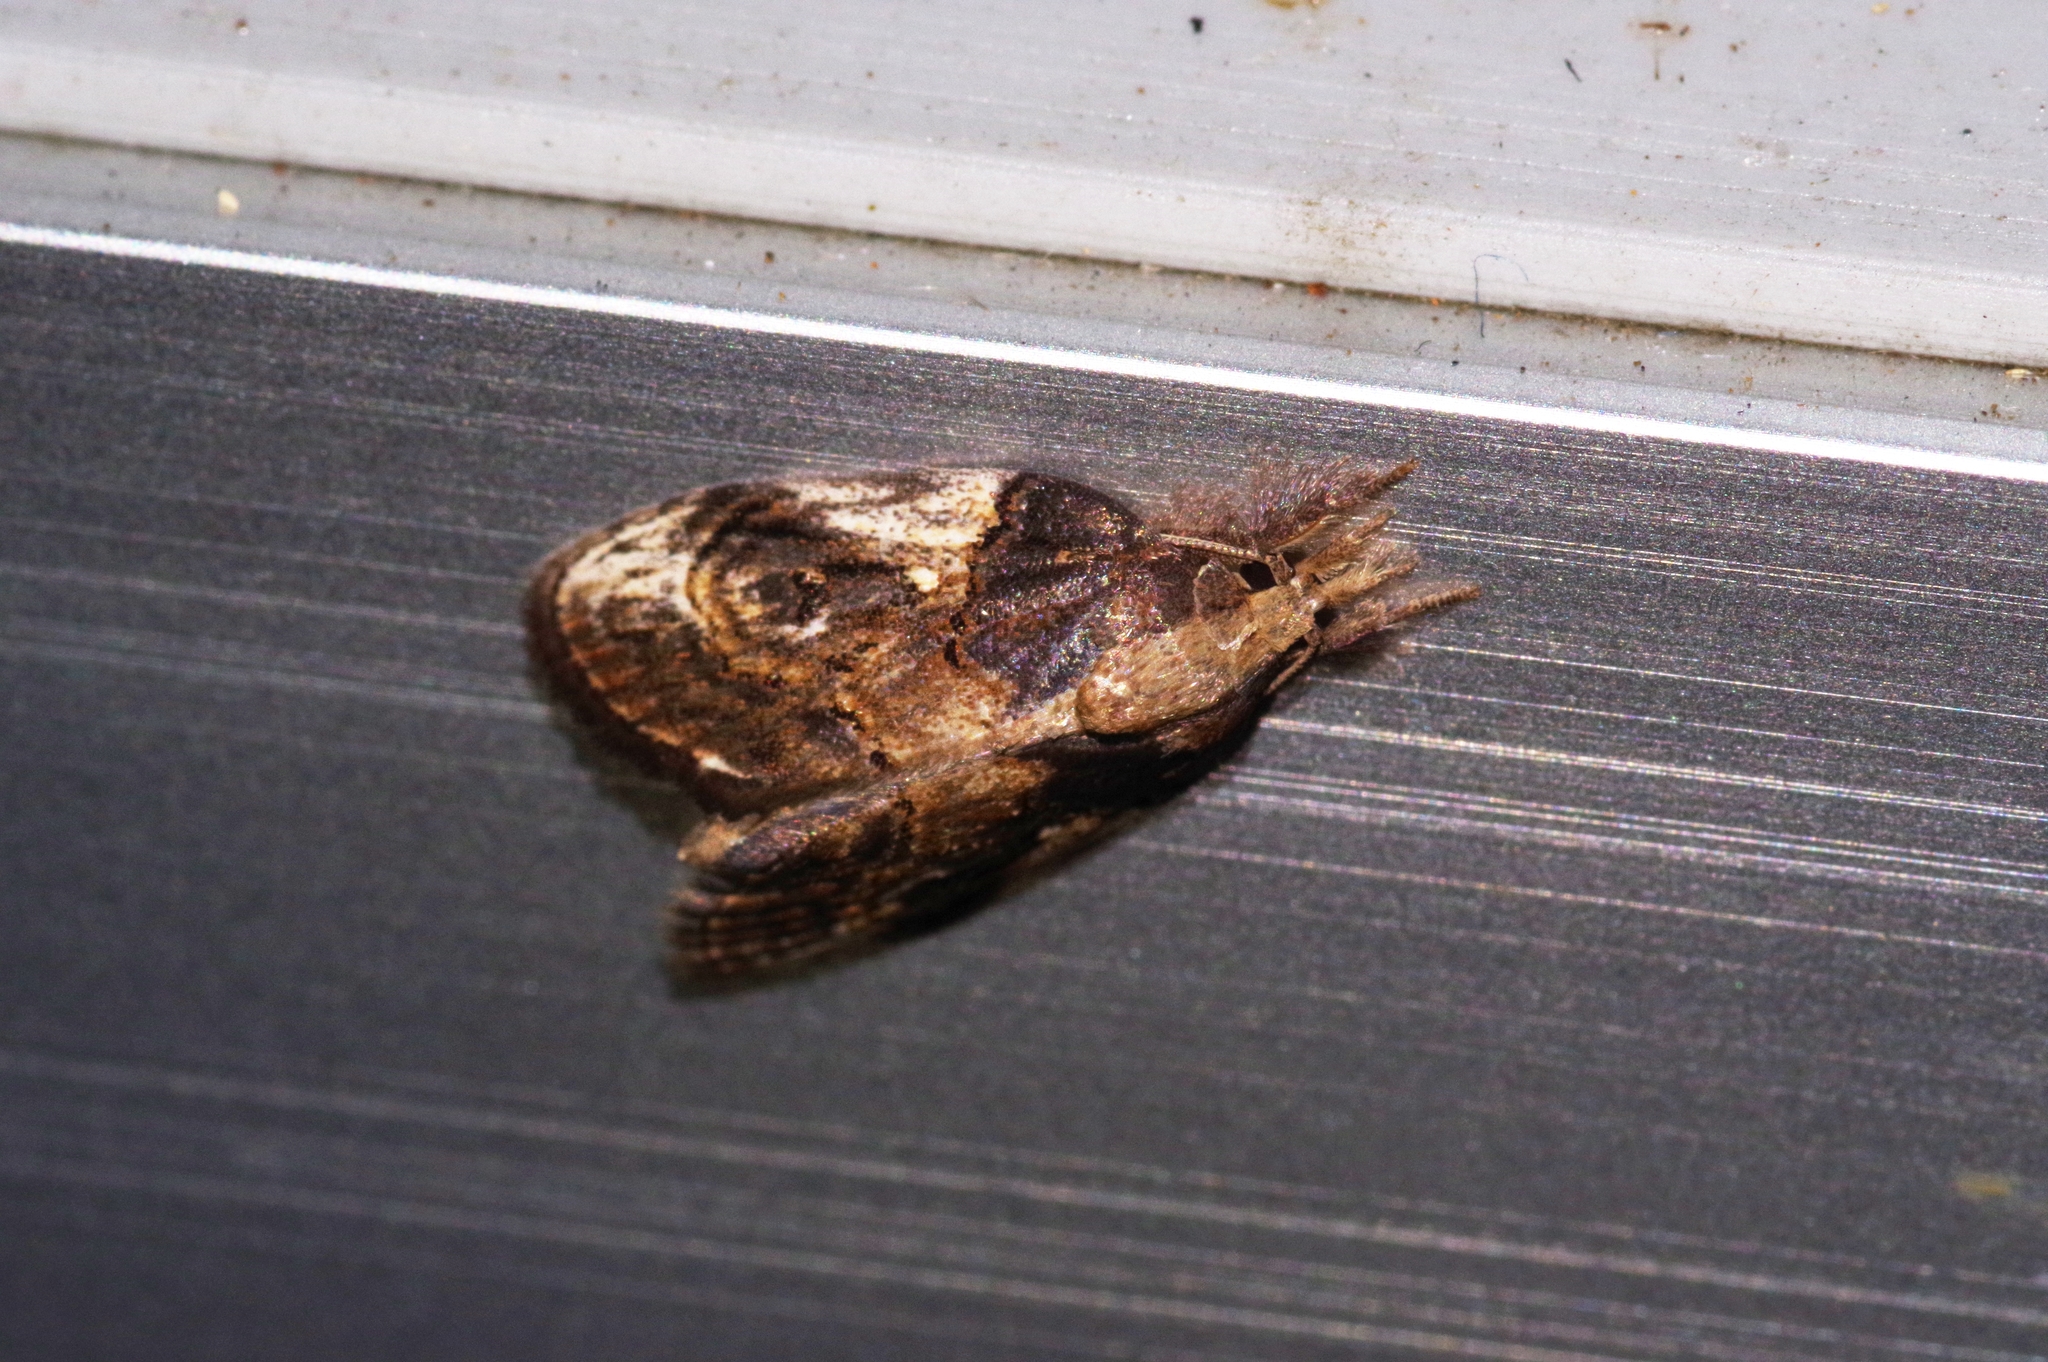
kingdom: Animalia
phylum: Arthropoda
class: Insecta
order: Lepidoptera
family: Nolidae
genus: Selepa
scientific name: Selepa molybdea
